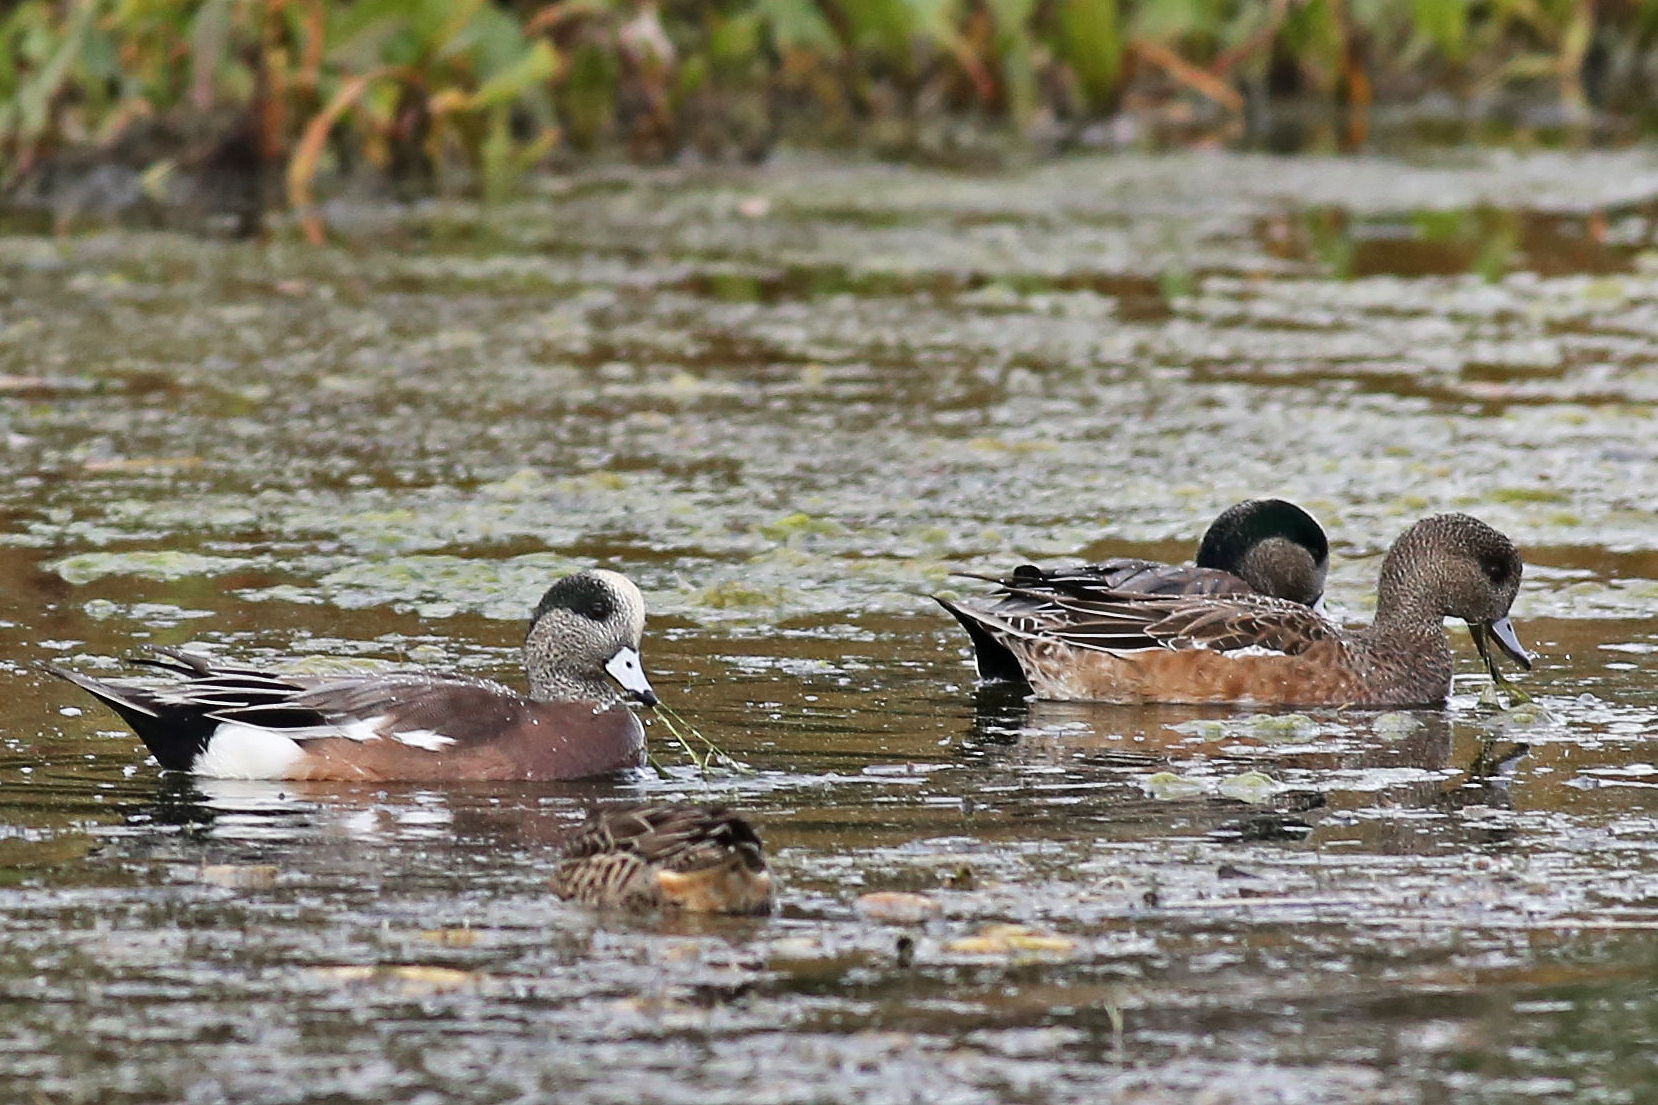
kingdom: Animalia
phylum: Chordata
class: Aves
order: Anseriformes
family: Anatidae
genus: Mareca
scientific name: Mareca americana
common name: American wigeon
